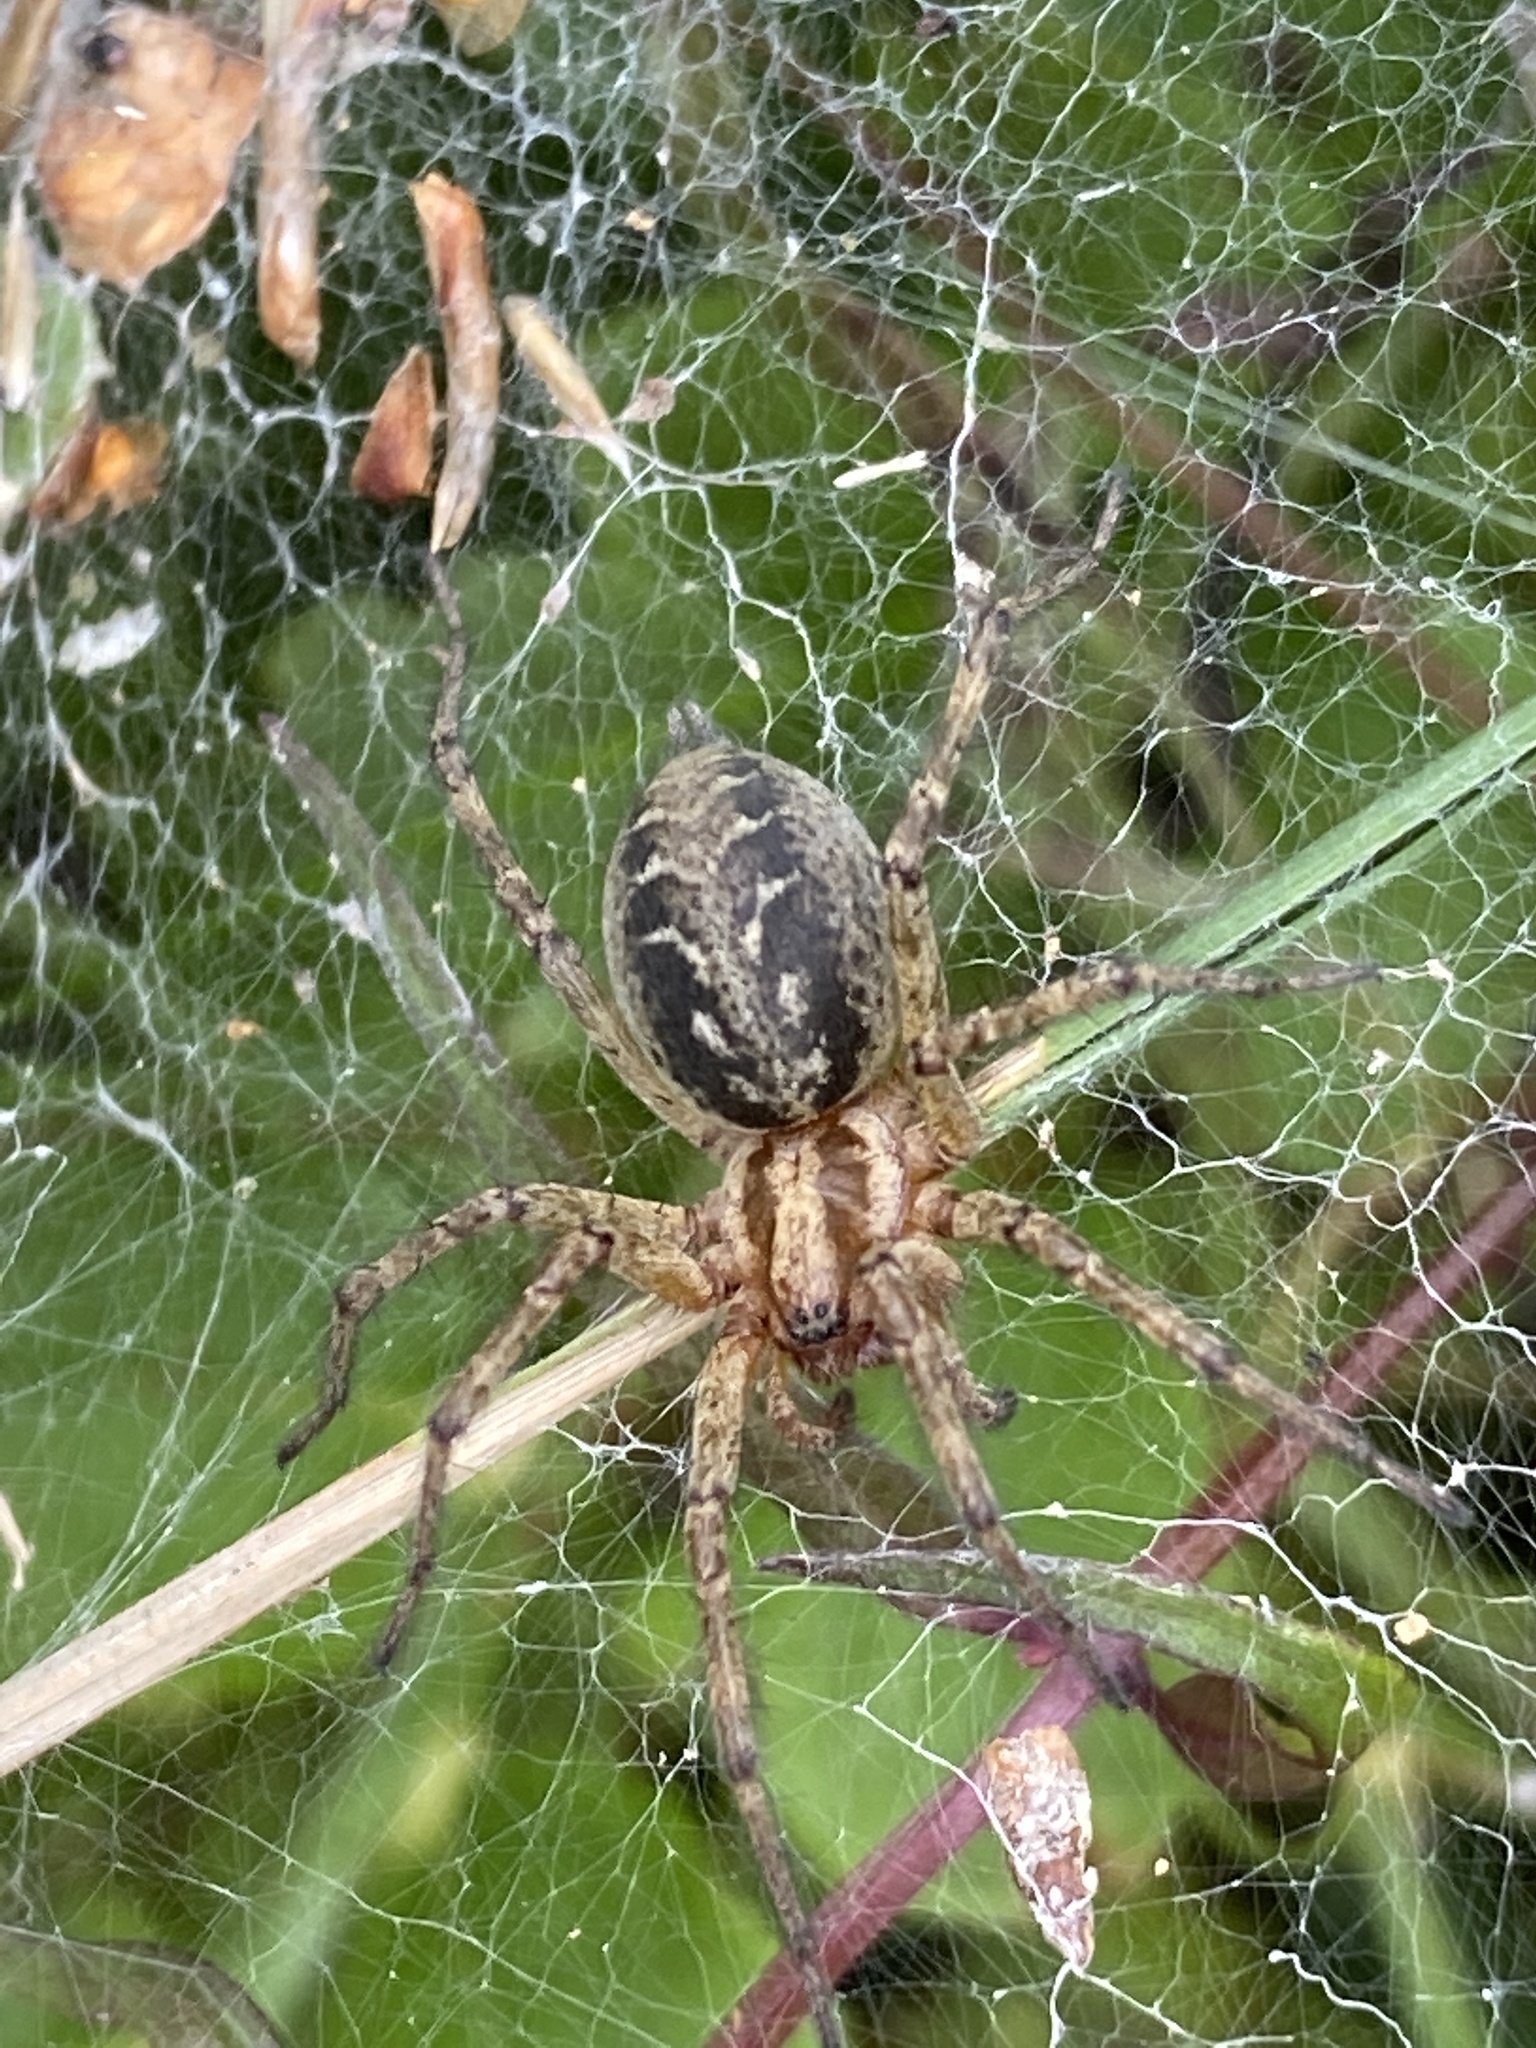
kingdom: Animalia
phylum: Arthropoda
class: Arachnida
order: Araneae
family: Agelenidae
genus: Agelena
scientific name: Agelena labyrinthica
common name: Labyrinth spider
